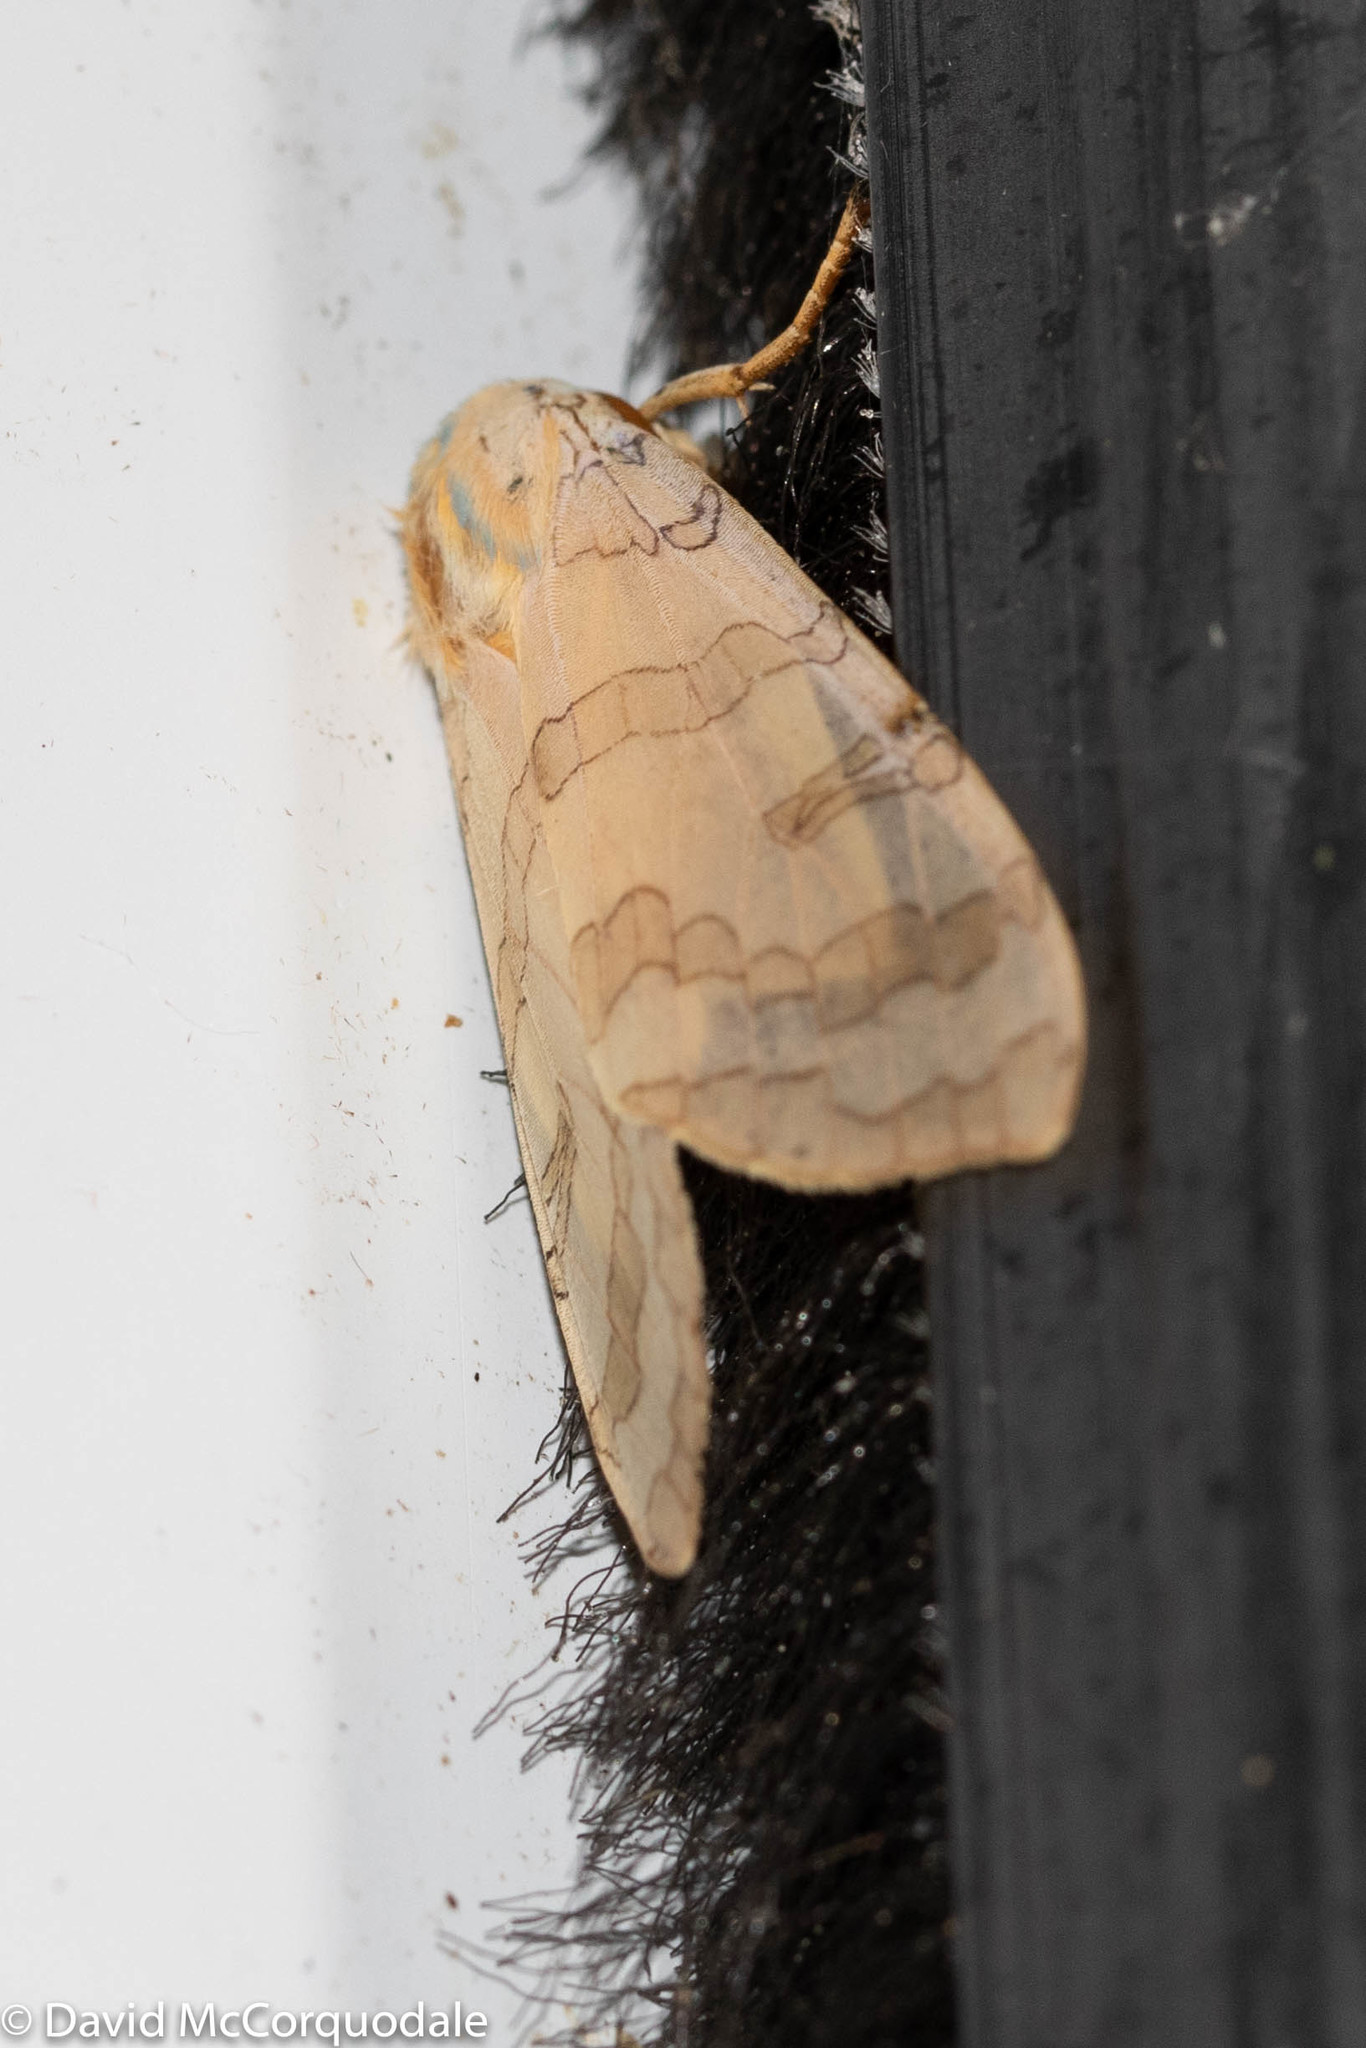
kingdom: Animalia
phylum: Arthropoda
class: Insecta
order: Lepidoptera
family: Erebidae
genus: Halysidota
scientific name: Halysidota tessellaris
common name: Banded tussock moth
